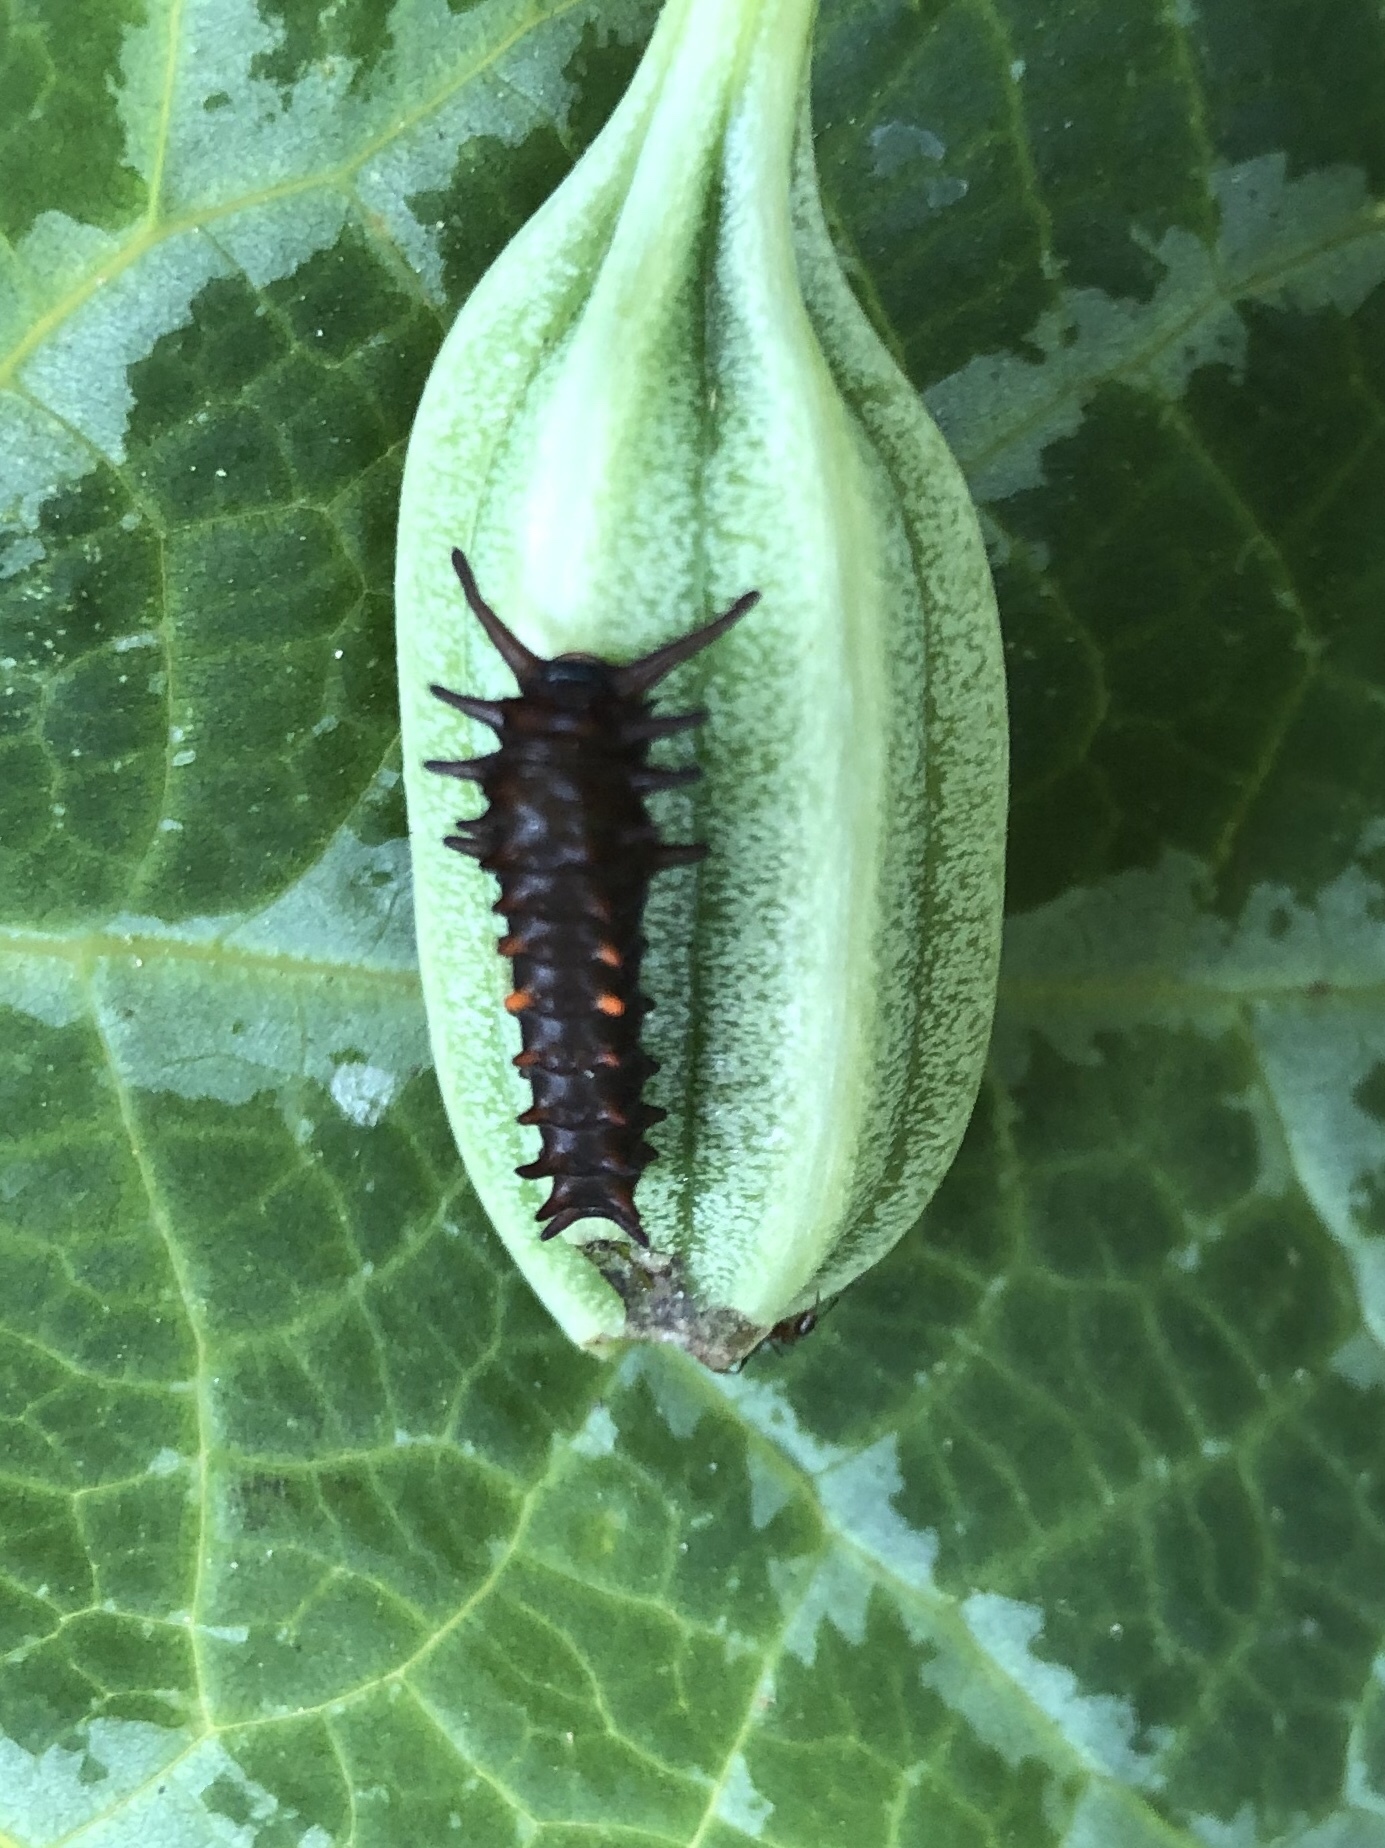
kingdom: Animalia
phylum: Arthropoda
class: Insecta
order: Lepidoptera
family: Papilionidae
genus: Battus
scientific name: Battus philenor
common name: Pipevine swallowtail
